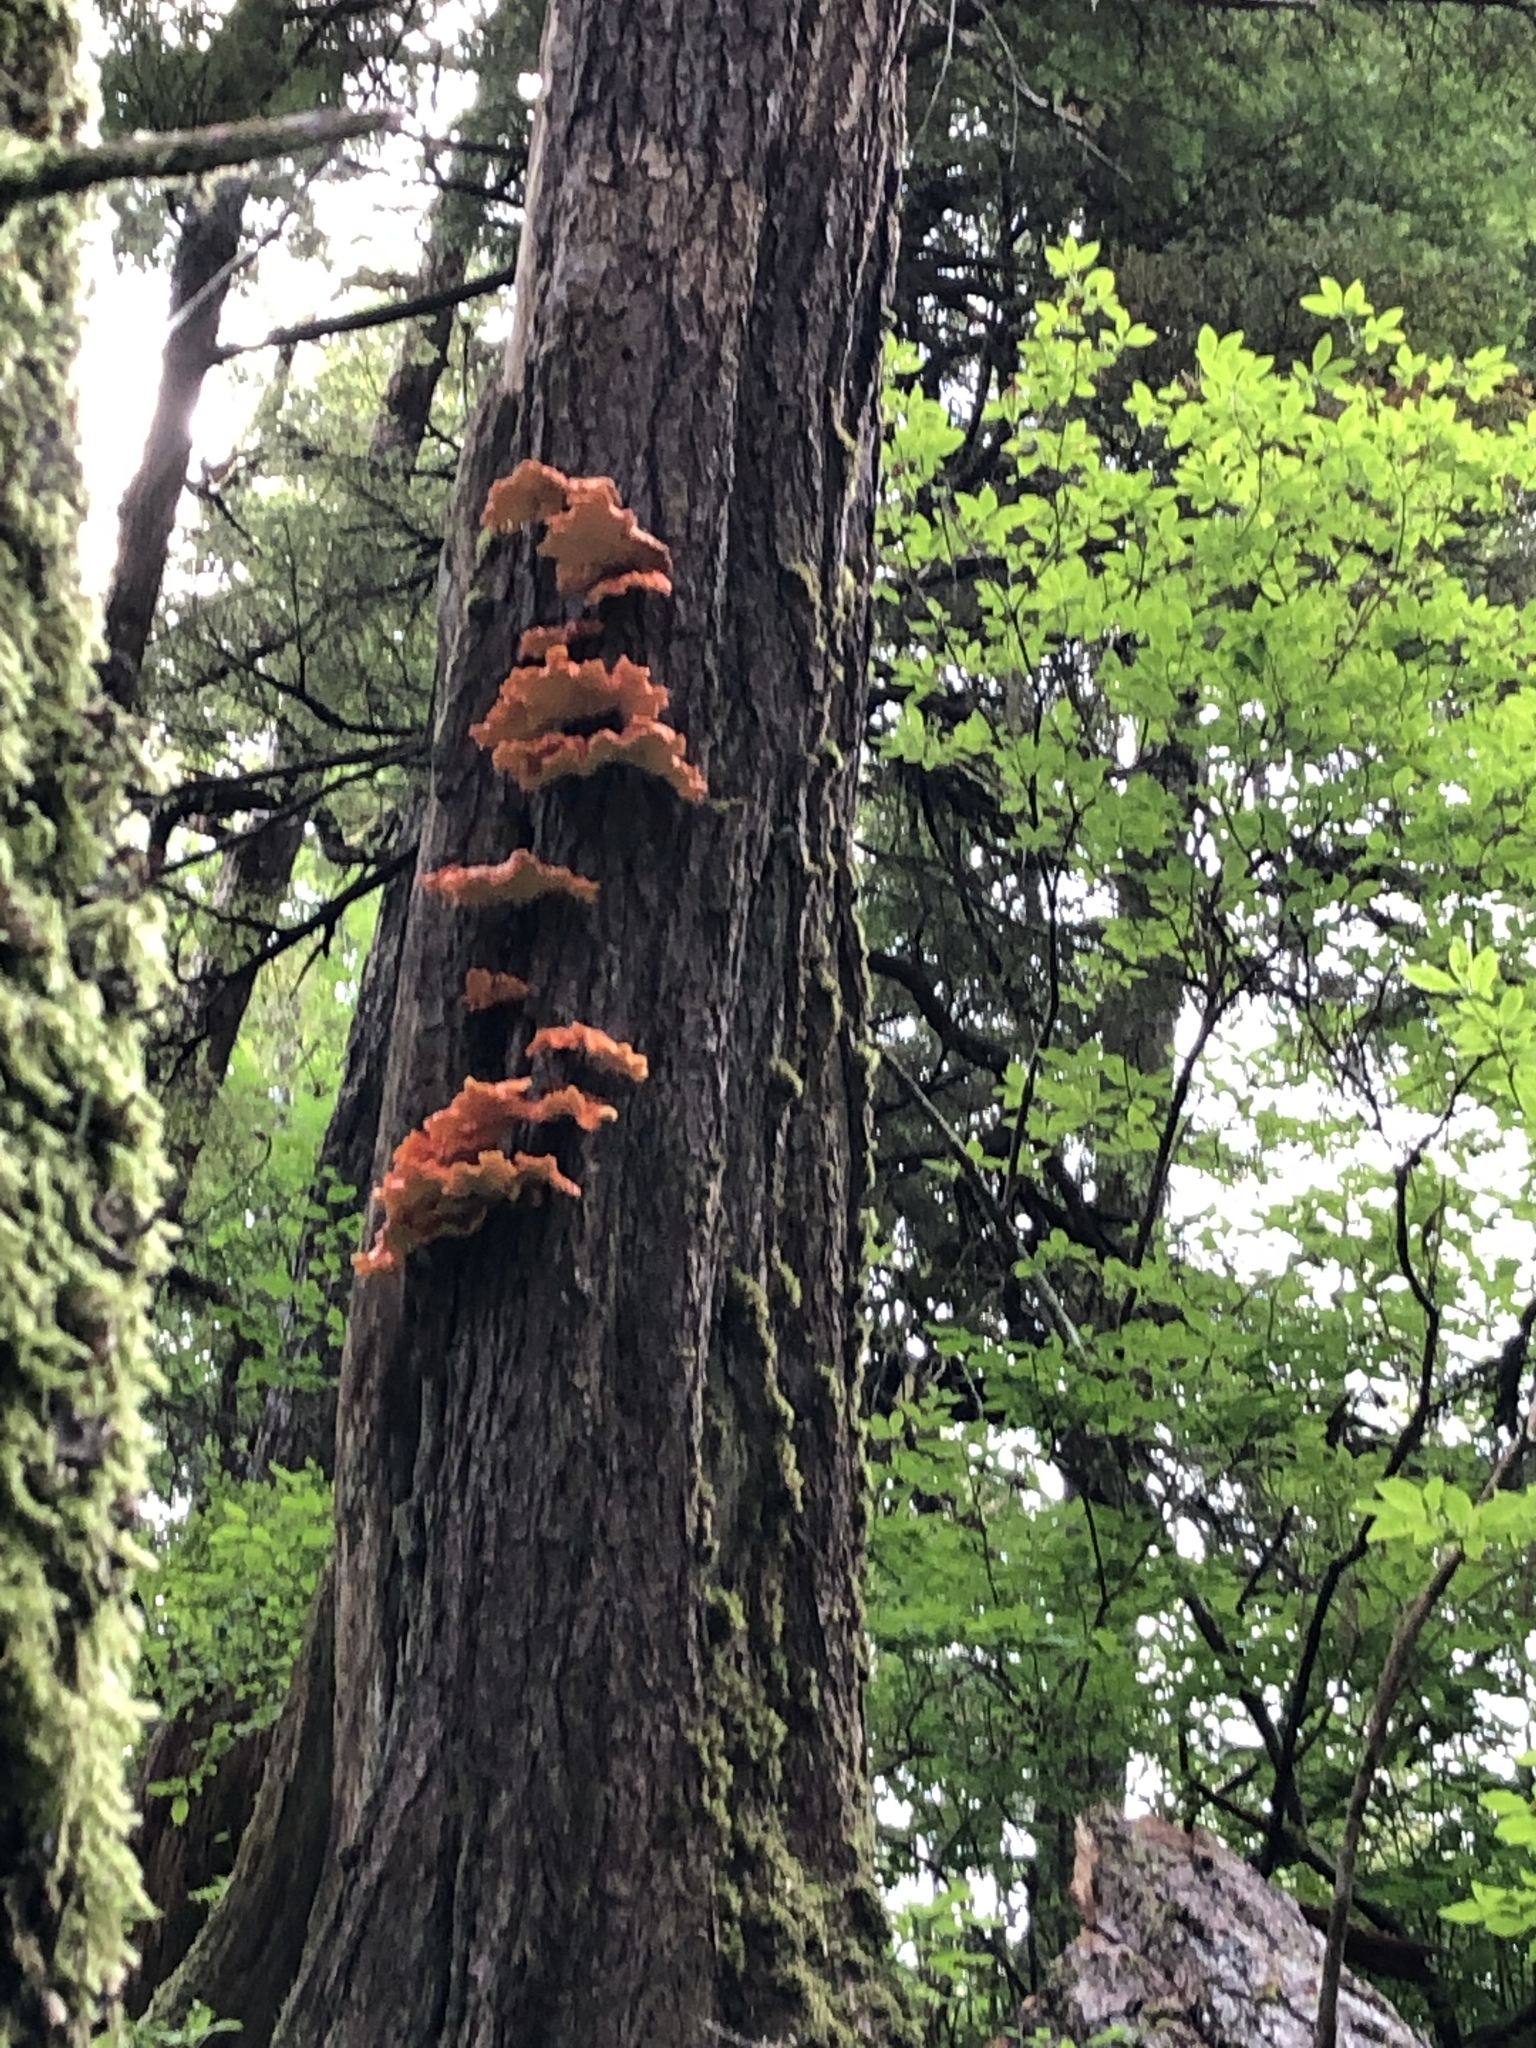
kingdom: Fungi
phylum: Basidiomycota
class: Agaricomycetes
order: Polyporales
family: Laetiporaceae
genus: Laetiporus
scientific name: Laetiporus conifericola
